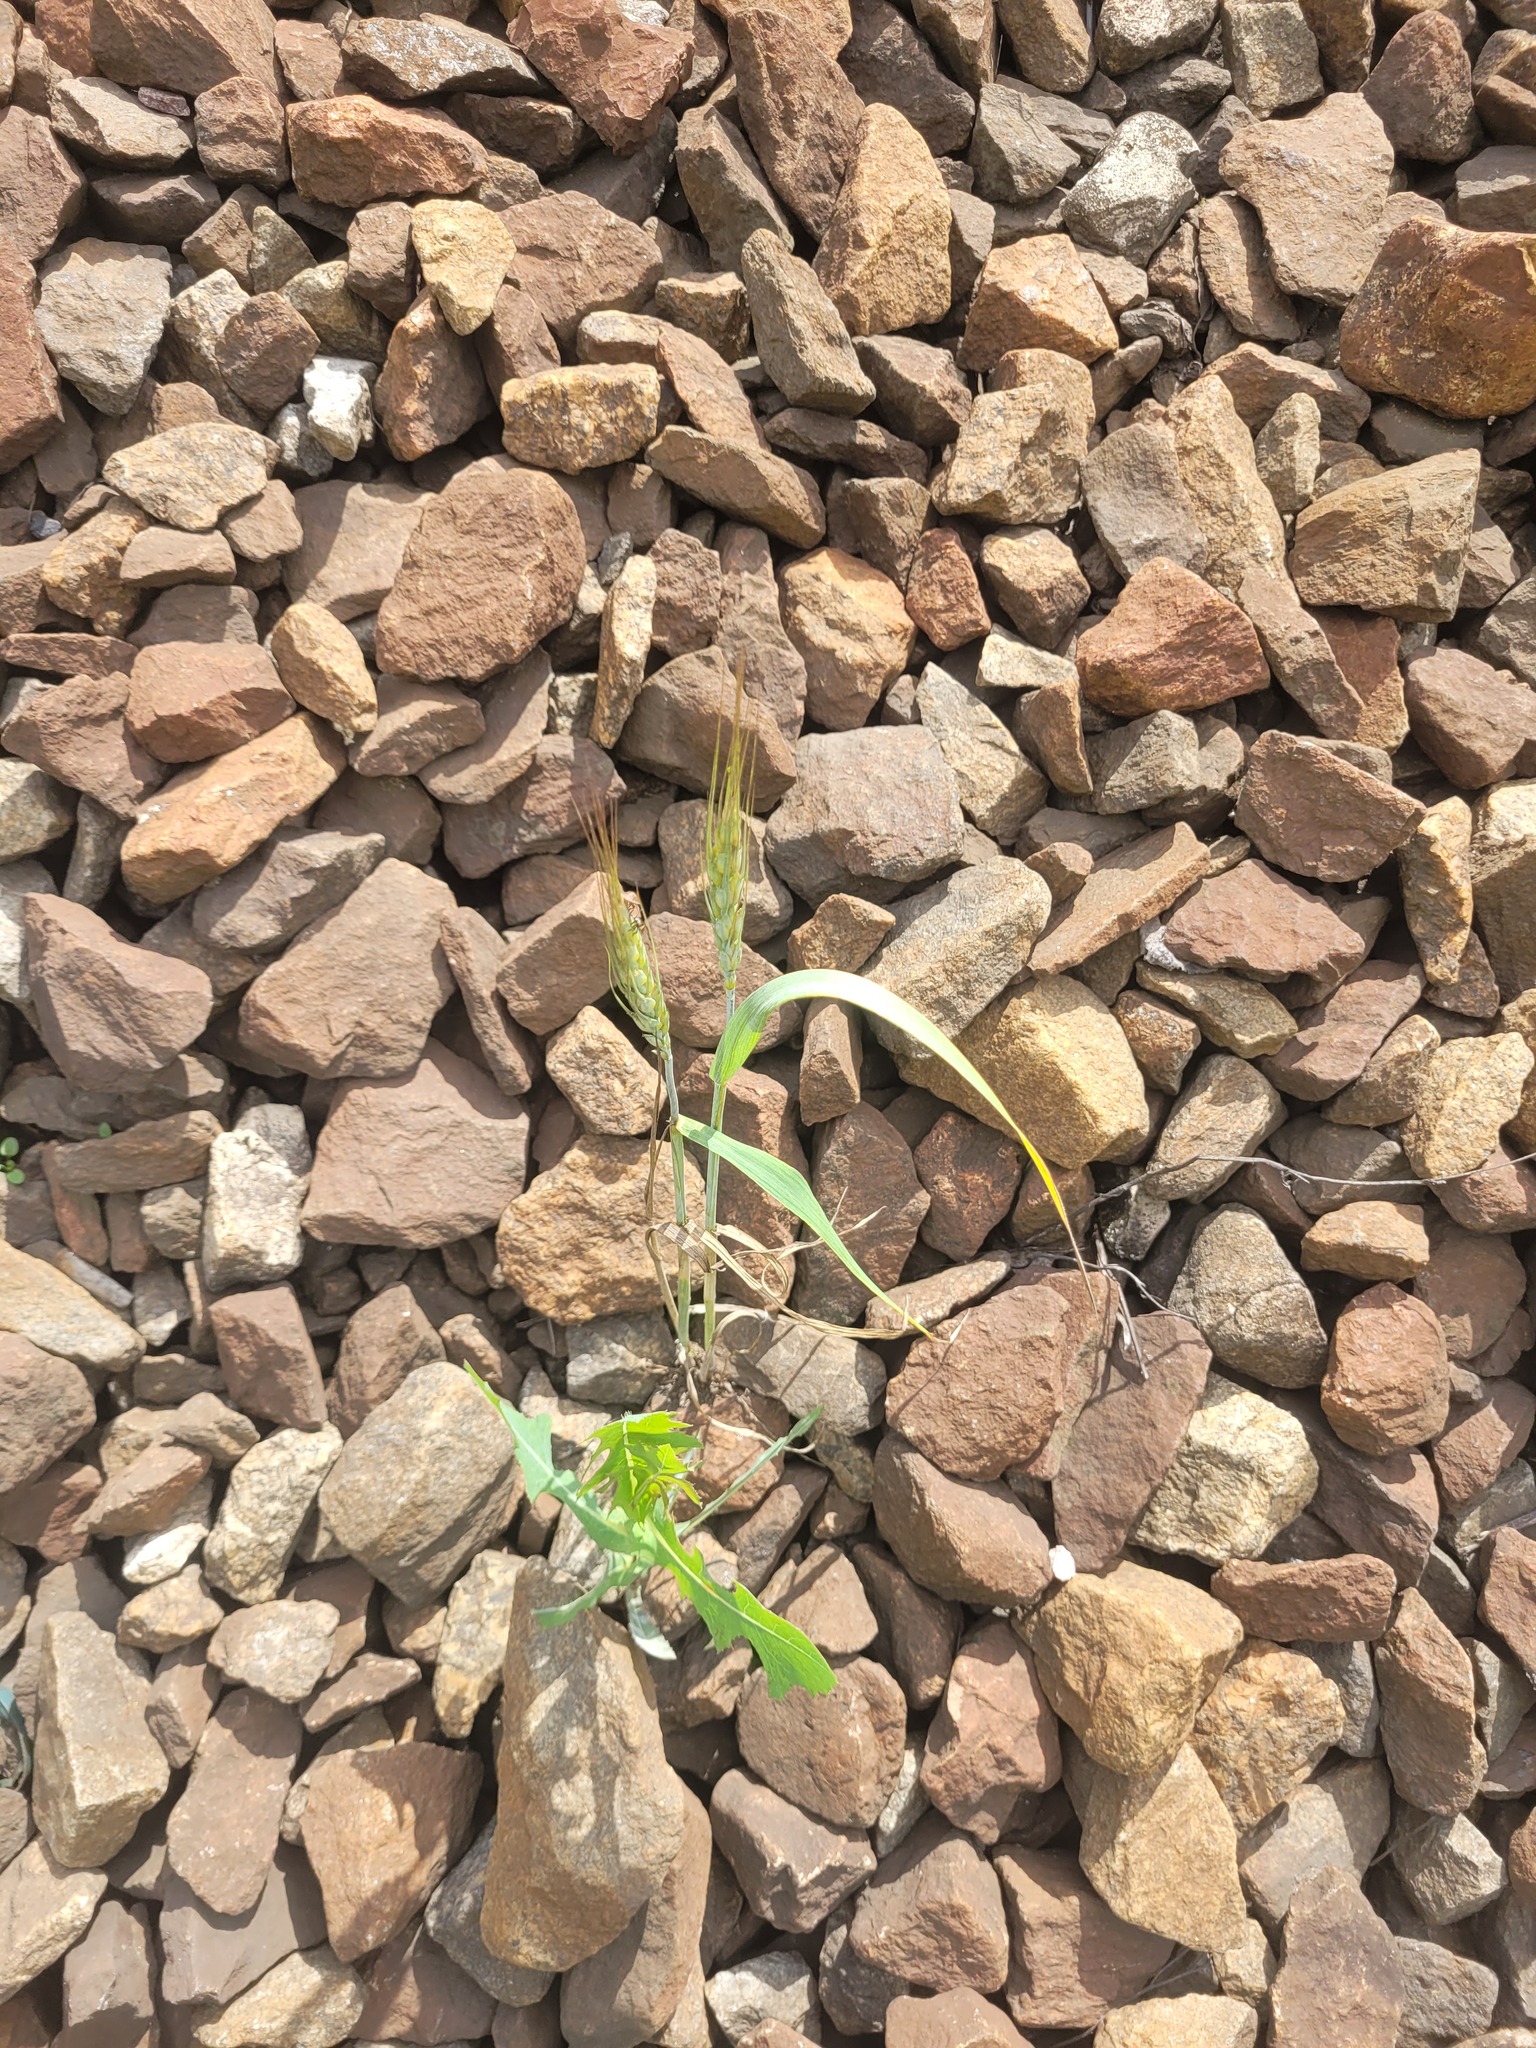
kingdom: Plantae
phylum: Tracheophyta
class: Liliopsida
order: Poales
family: Poaceae
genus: Triticum
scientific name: Triticum aestivum
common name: Common wheat
